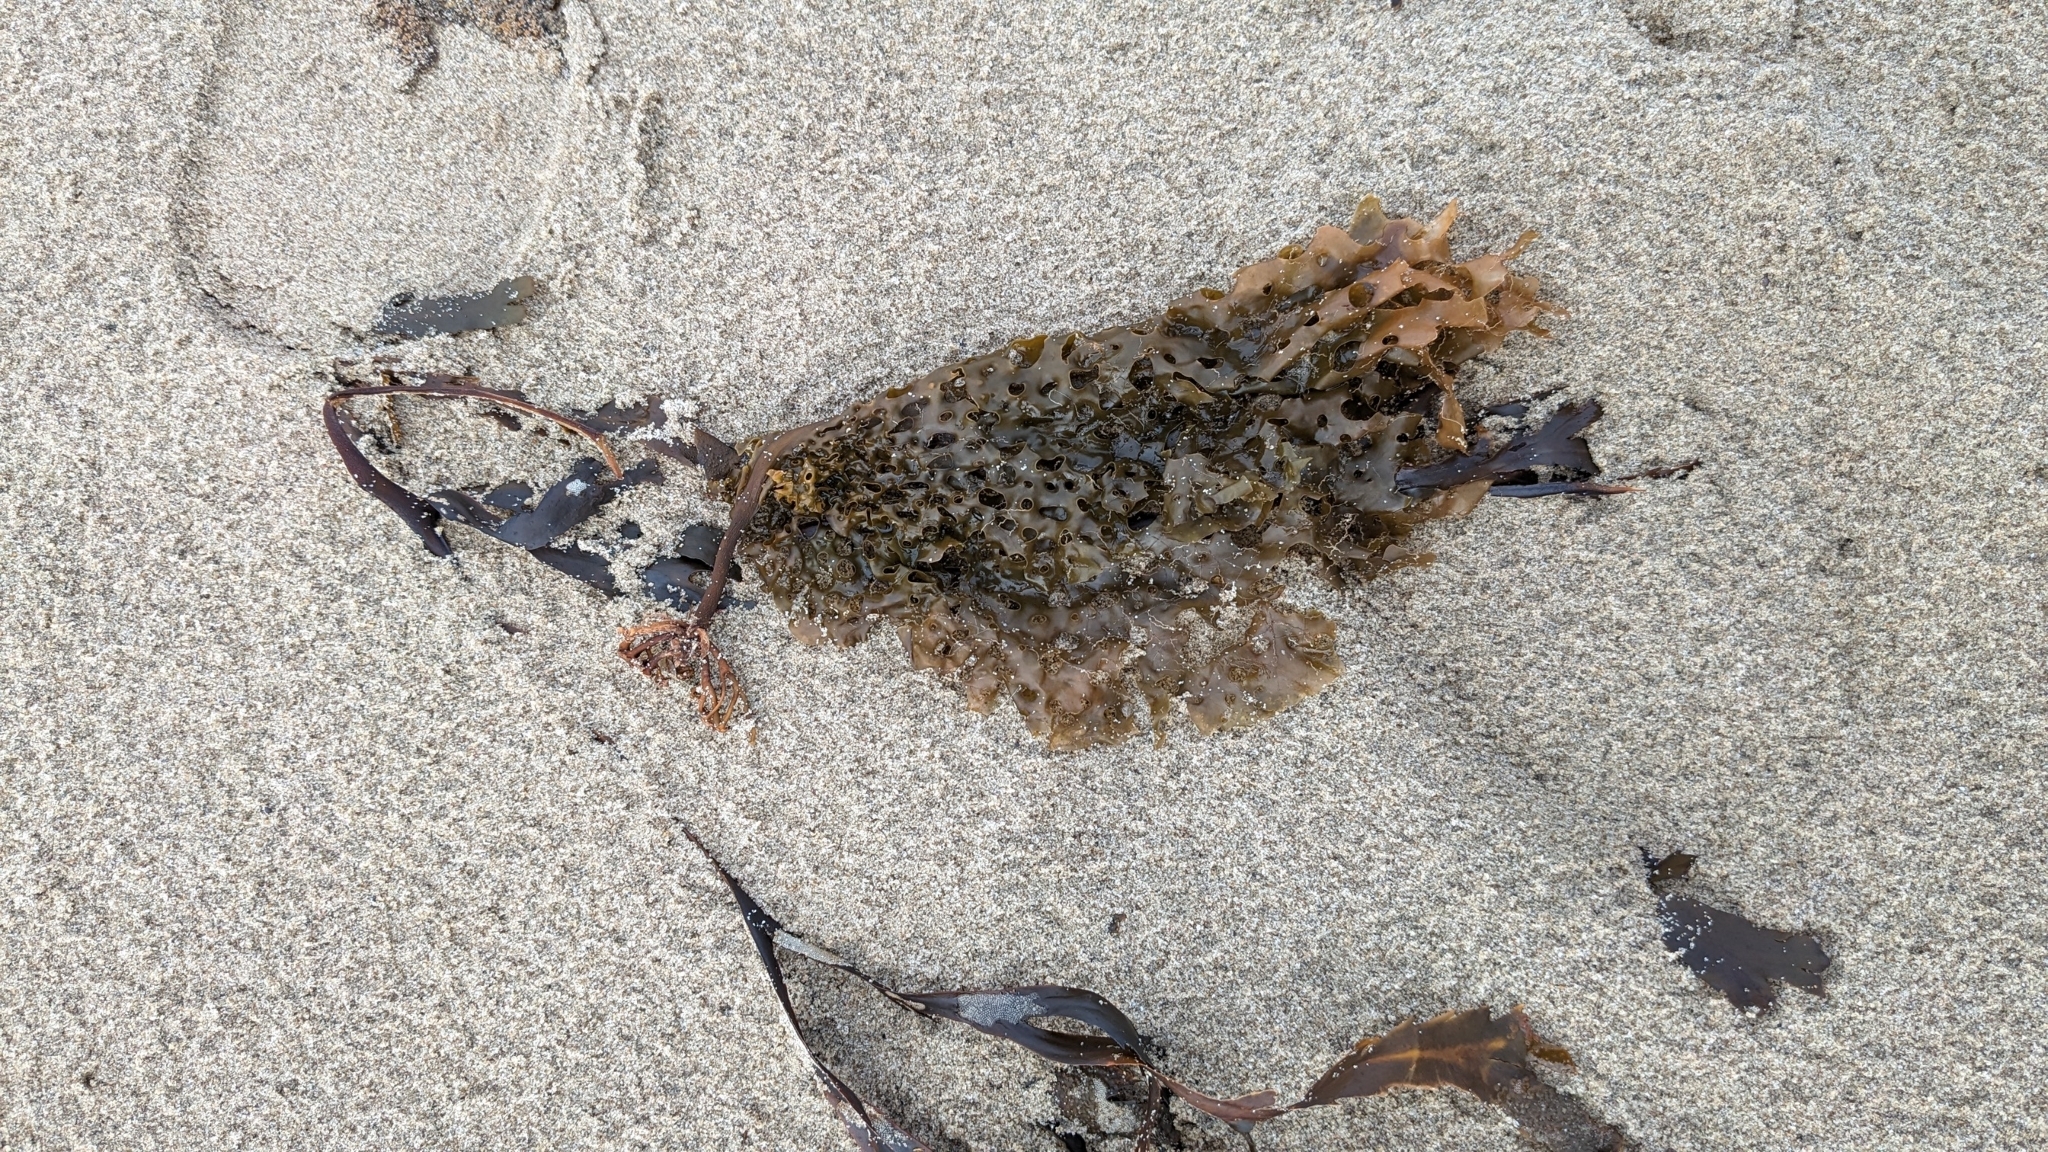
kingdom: Chromista
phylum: Ochrophyta
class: Phaeophyceae
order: Laminariales
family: Costariaceae
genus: Agarum
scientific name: Agarum clathratum
